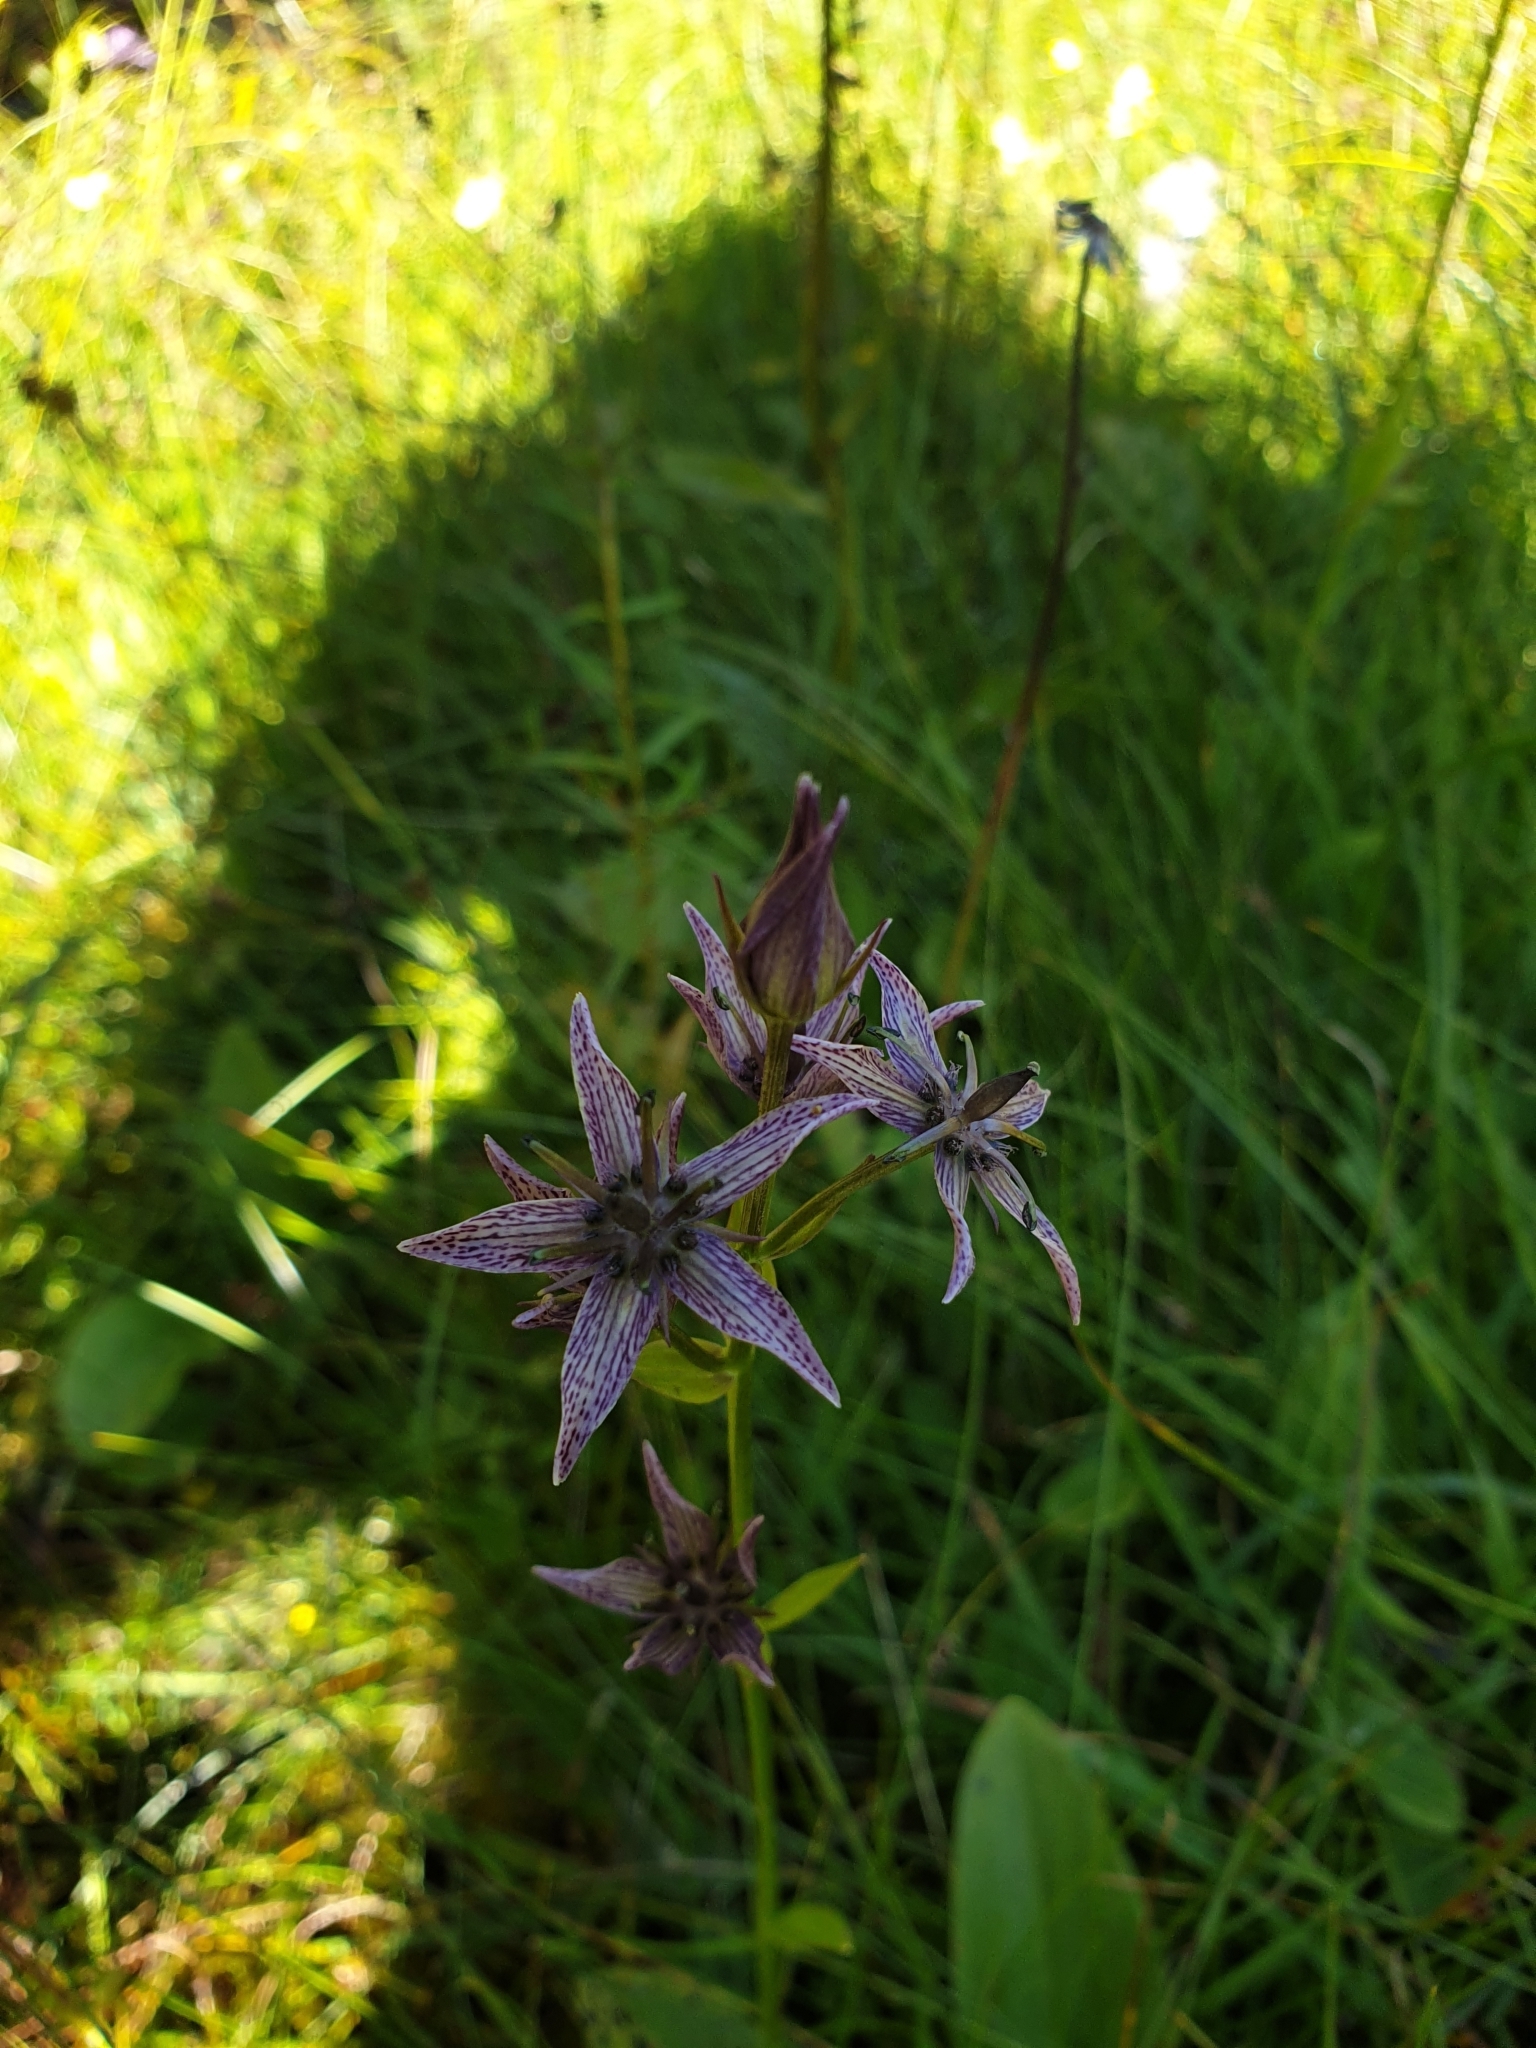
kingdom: Plantae
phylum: Tracheophyta
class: Magnoliopsida
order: Gentianales
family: Gentianaceae
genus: Swertia
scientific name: Swertia perennis
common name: Alpine bog swertia
